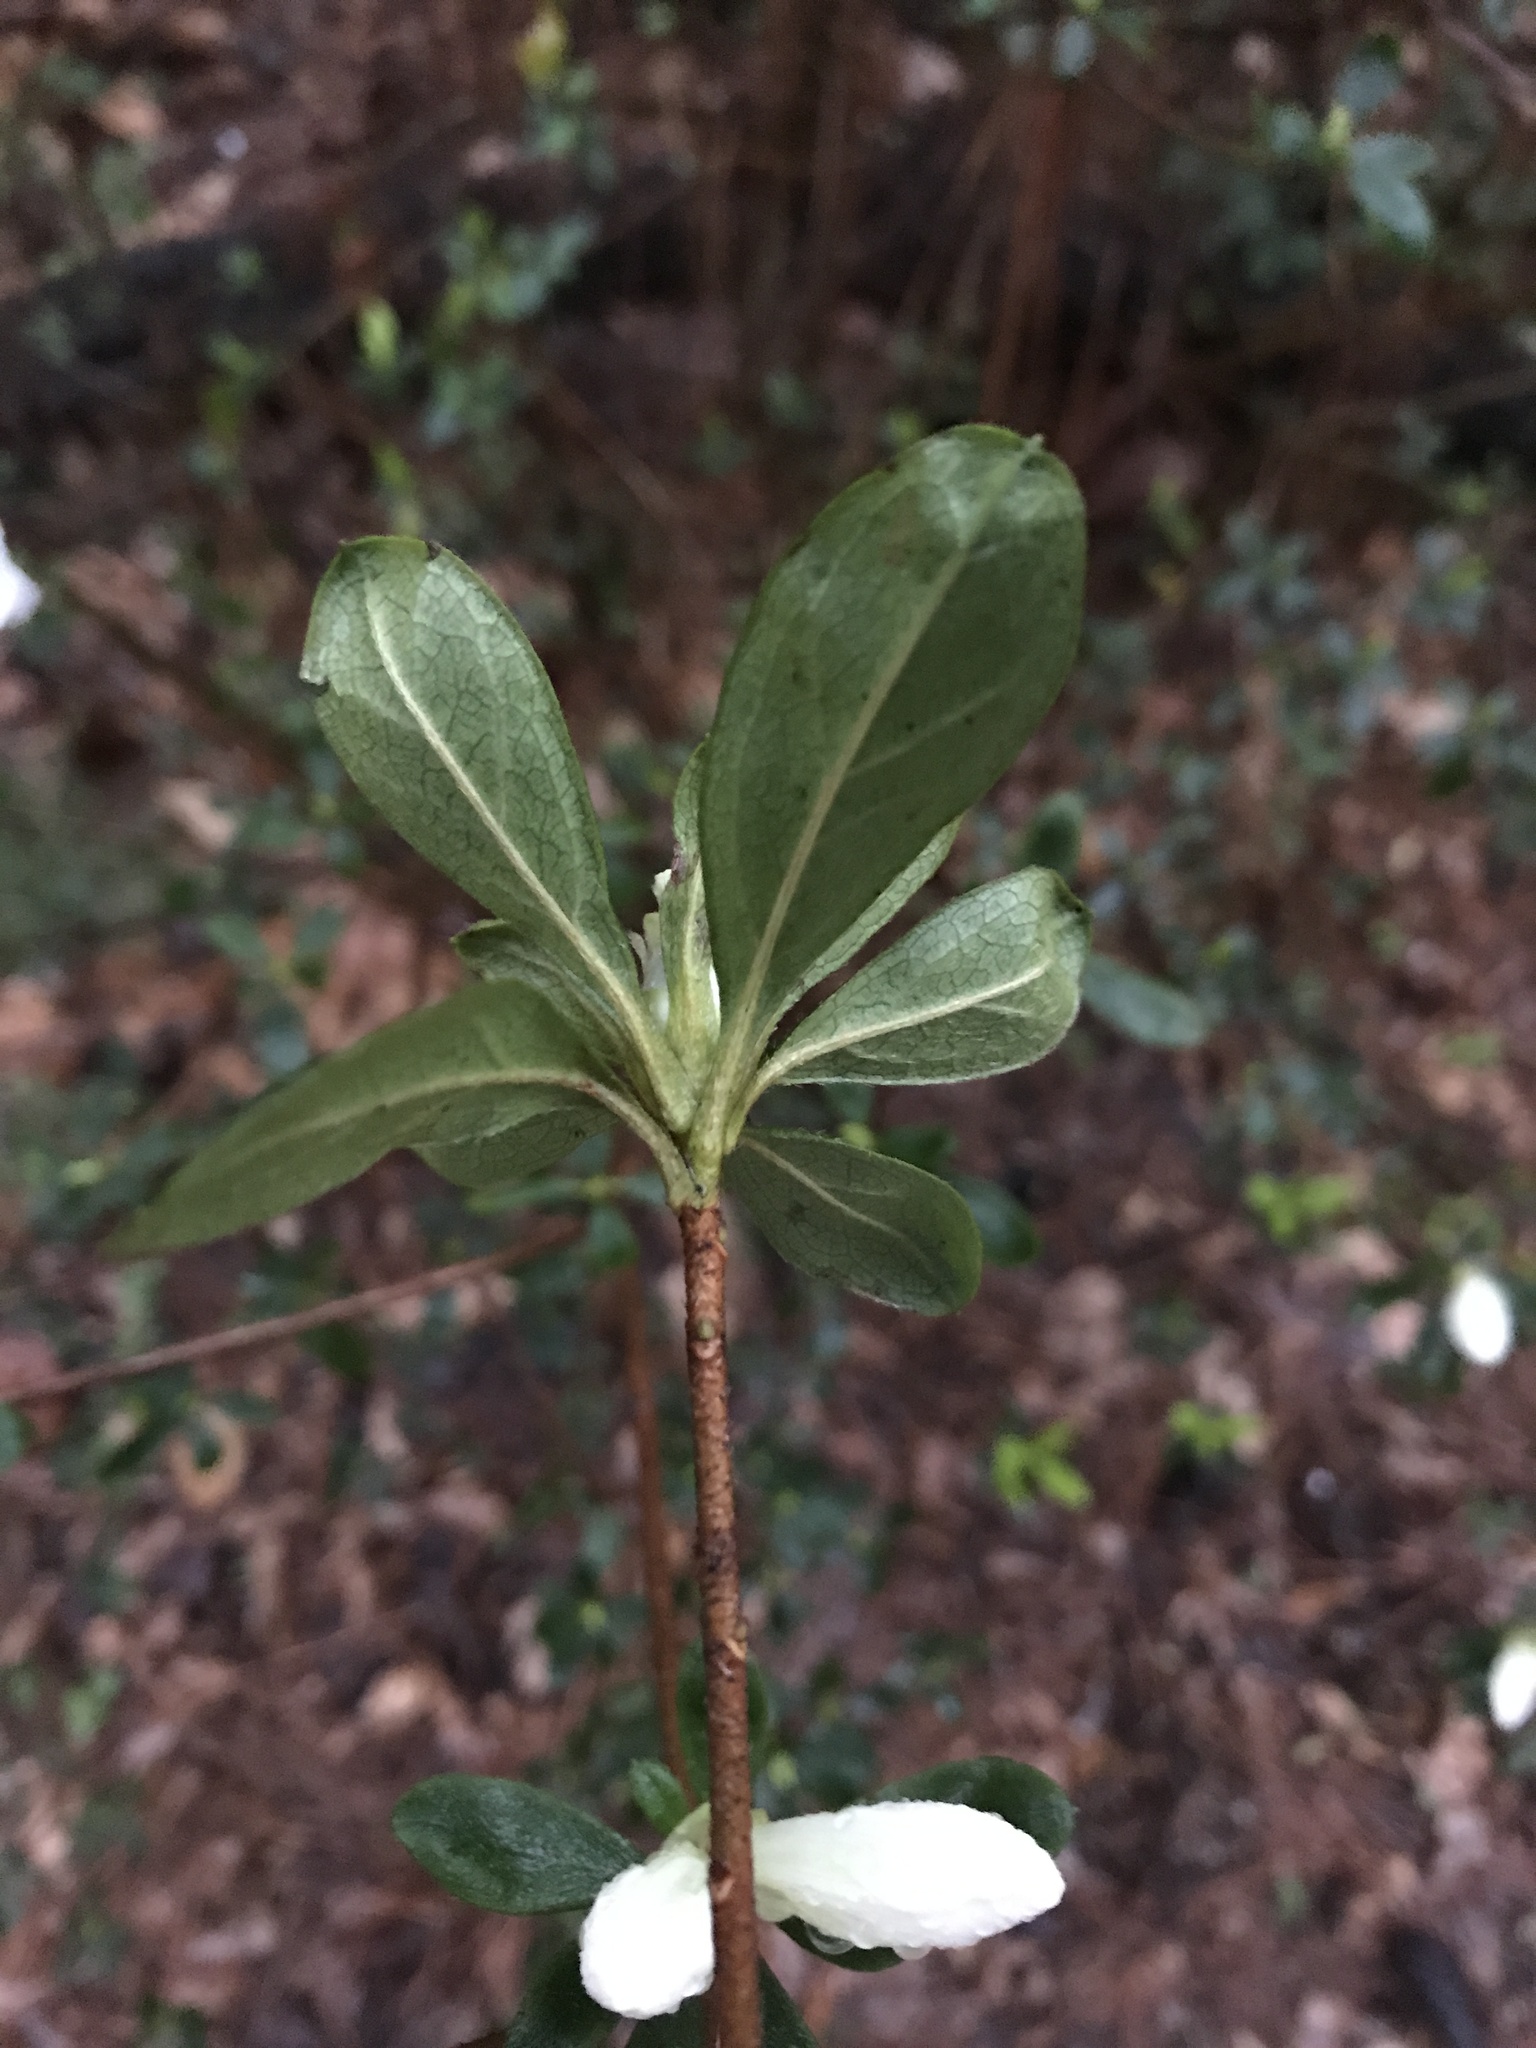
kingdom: Plantae
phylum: Tracheophyta
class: Magnoliopsida
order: Ericales
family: Ericaceae
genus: Rhododendron
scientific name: Rhododendron indicum
